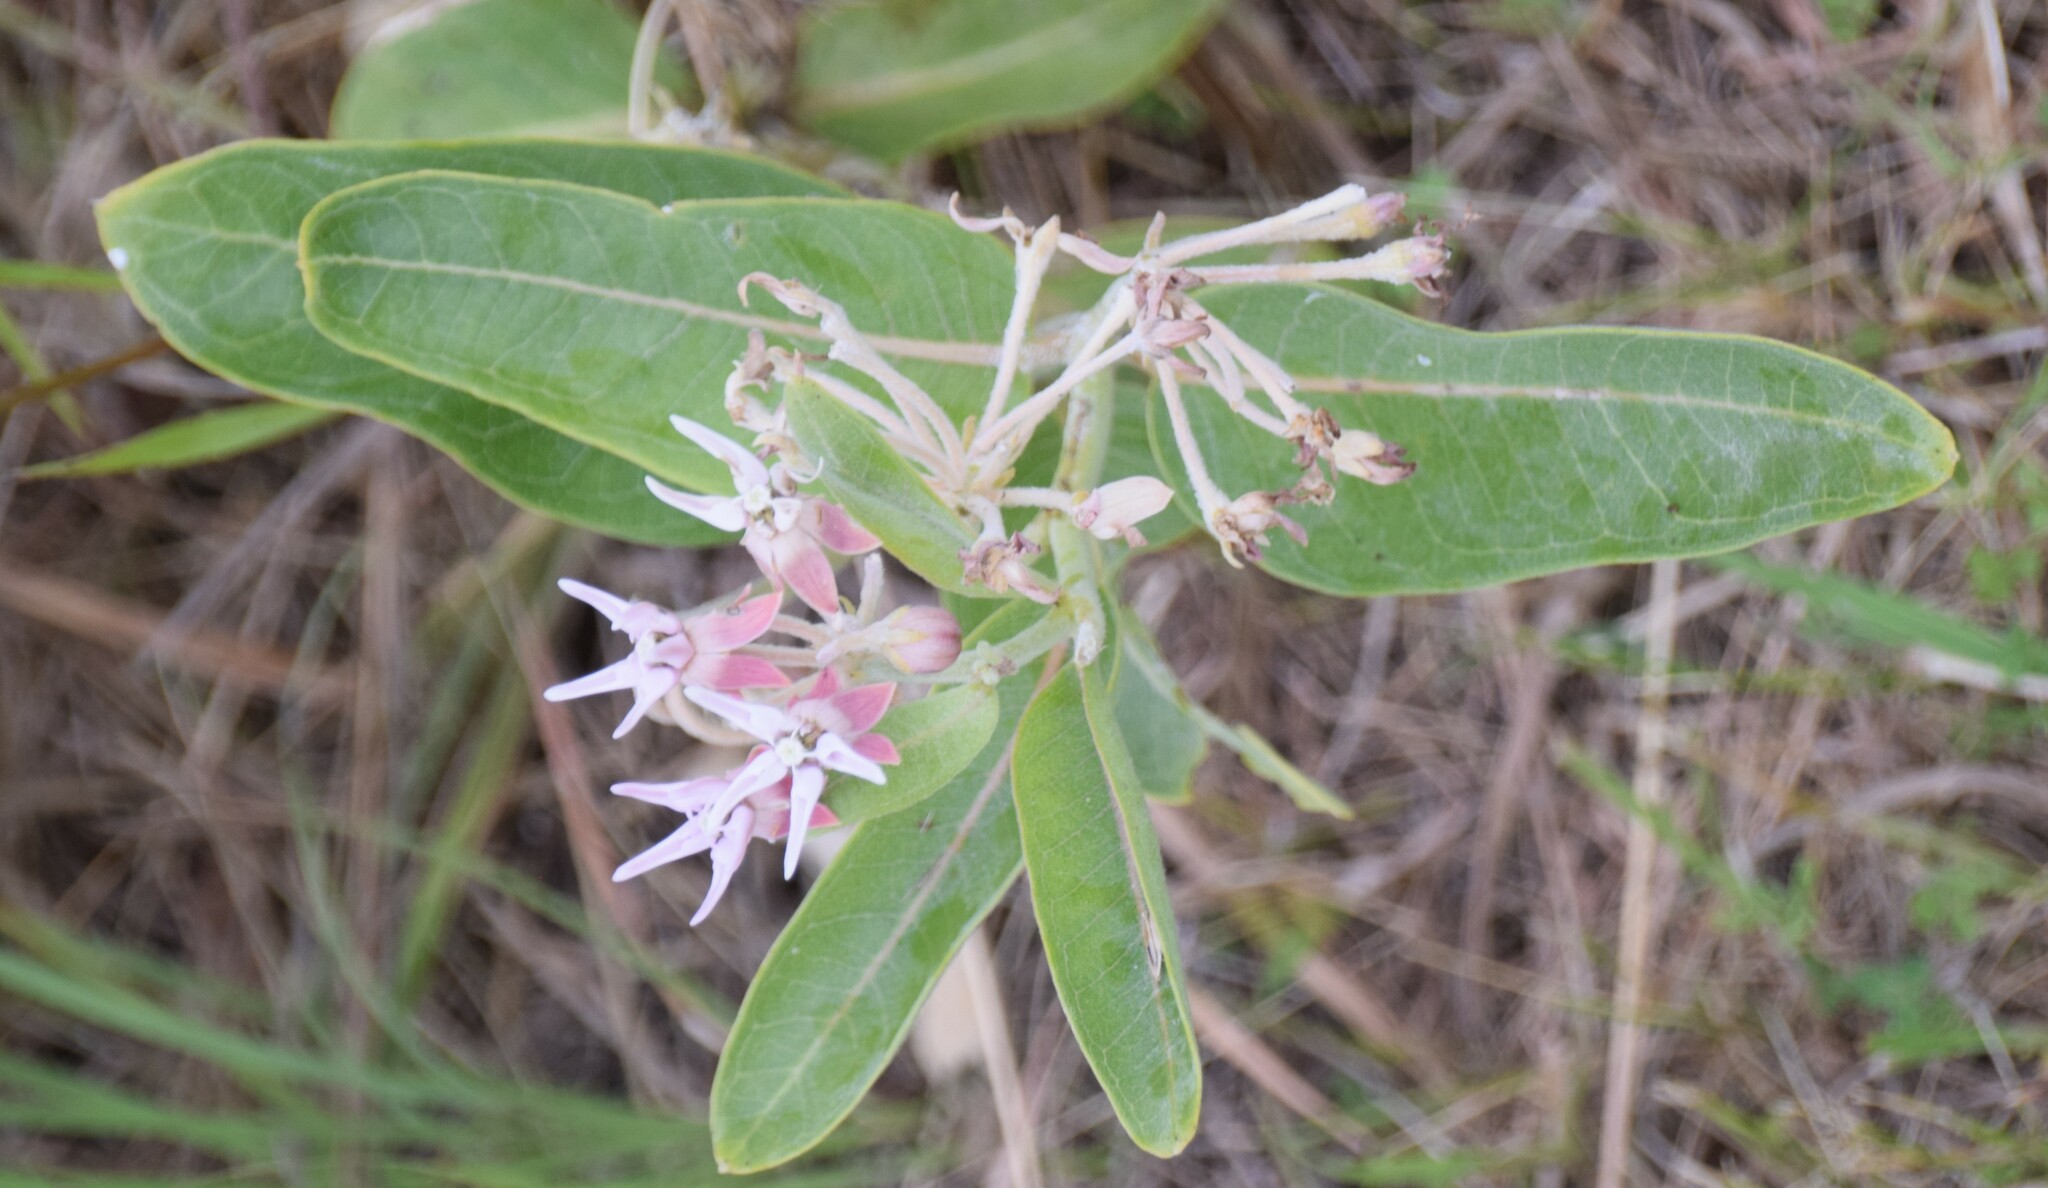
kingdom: Plantae
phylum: Tracheophyta
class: Magnoliopsida
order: Gentianales
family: Apocynaceae
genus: Asclepias
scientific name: Asclepias speciosa
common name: Showy milkweed
